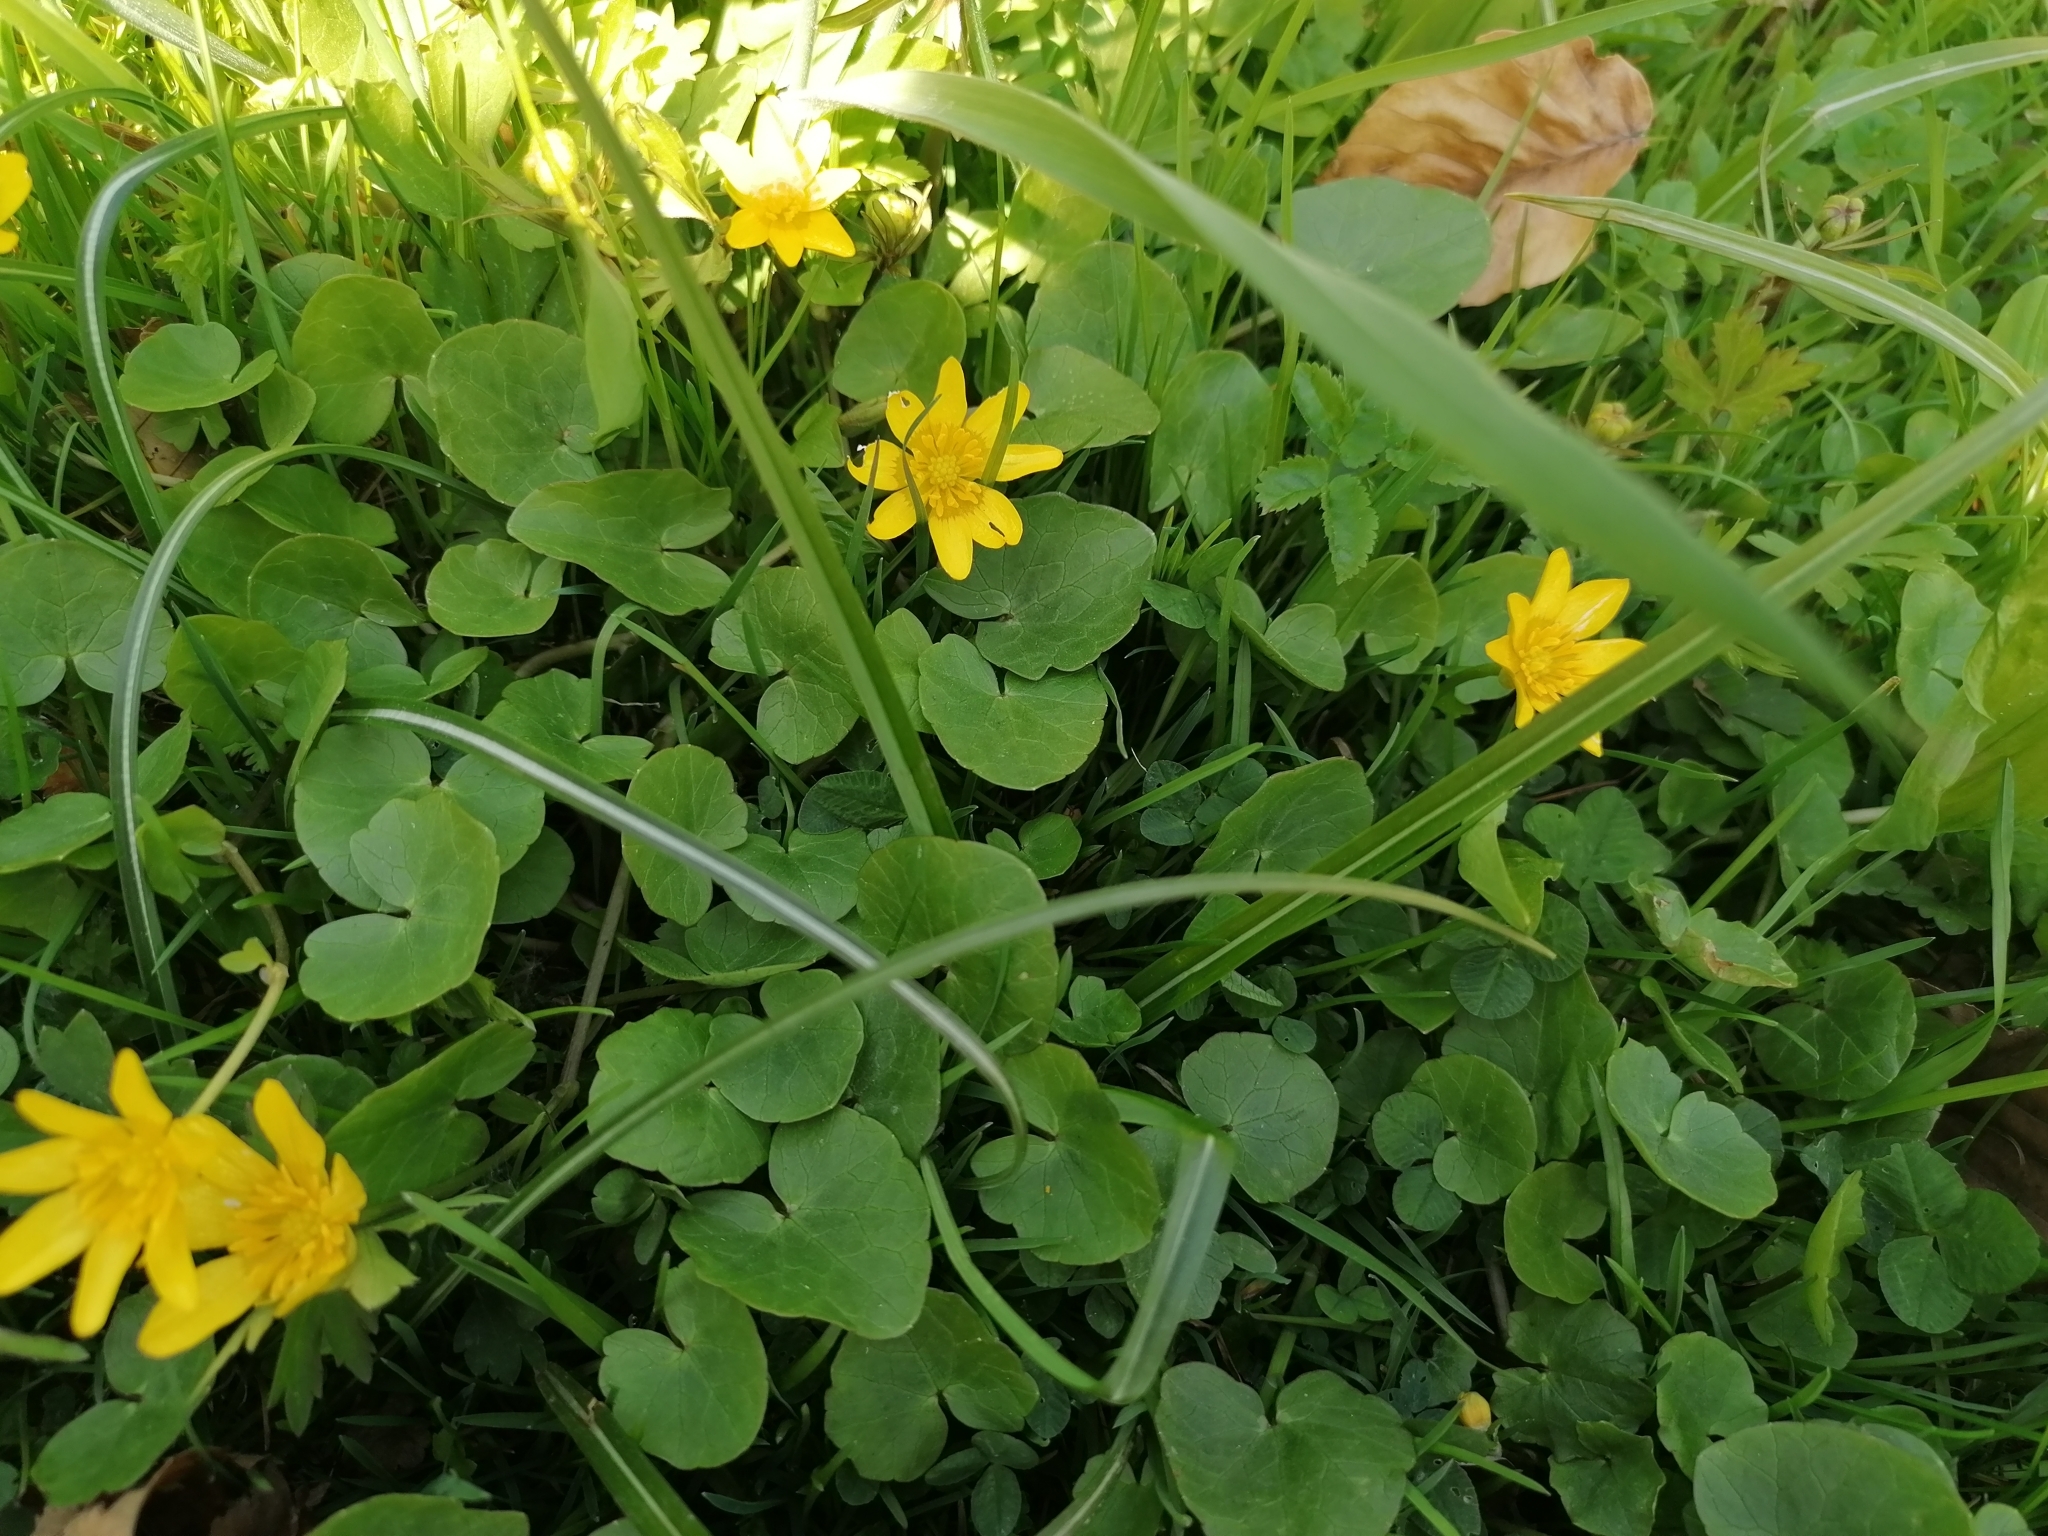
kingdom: Plantae
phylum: Tracheophyta
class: Magnoliopsida
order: Ranunculales
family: Ranunculaceae
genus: Ficaria
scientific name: Ficaria verna
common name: Lesser celandine
